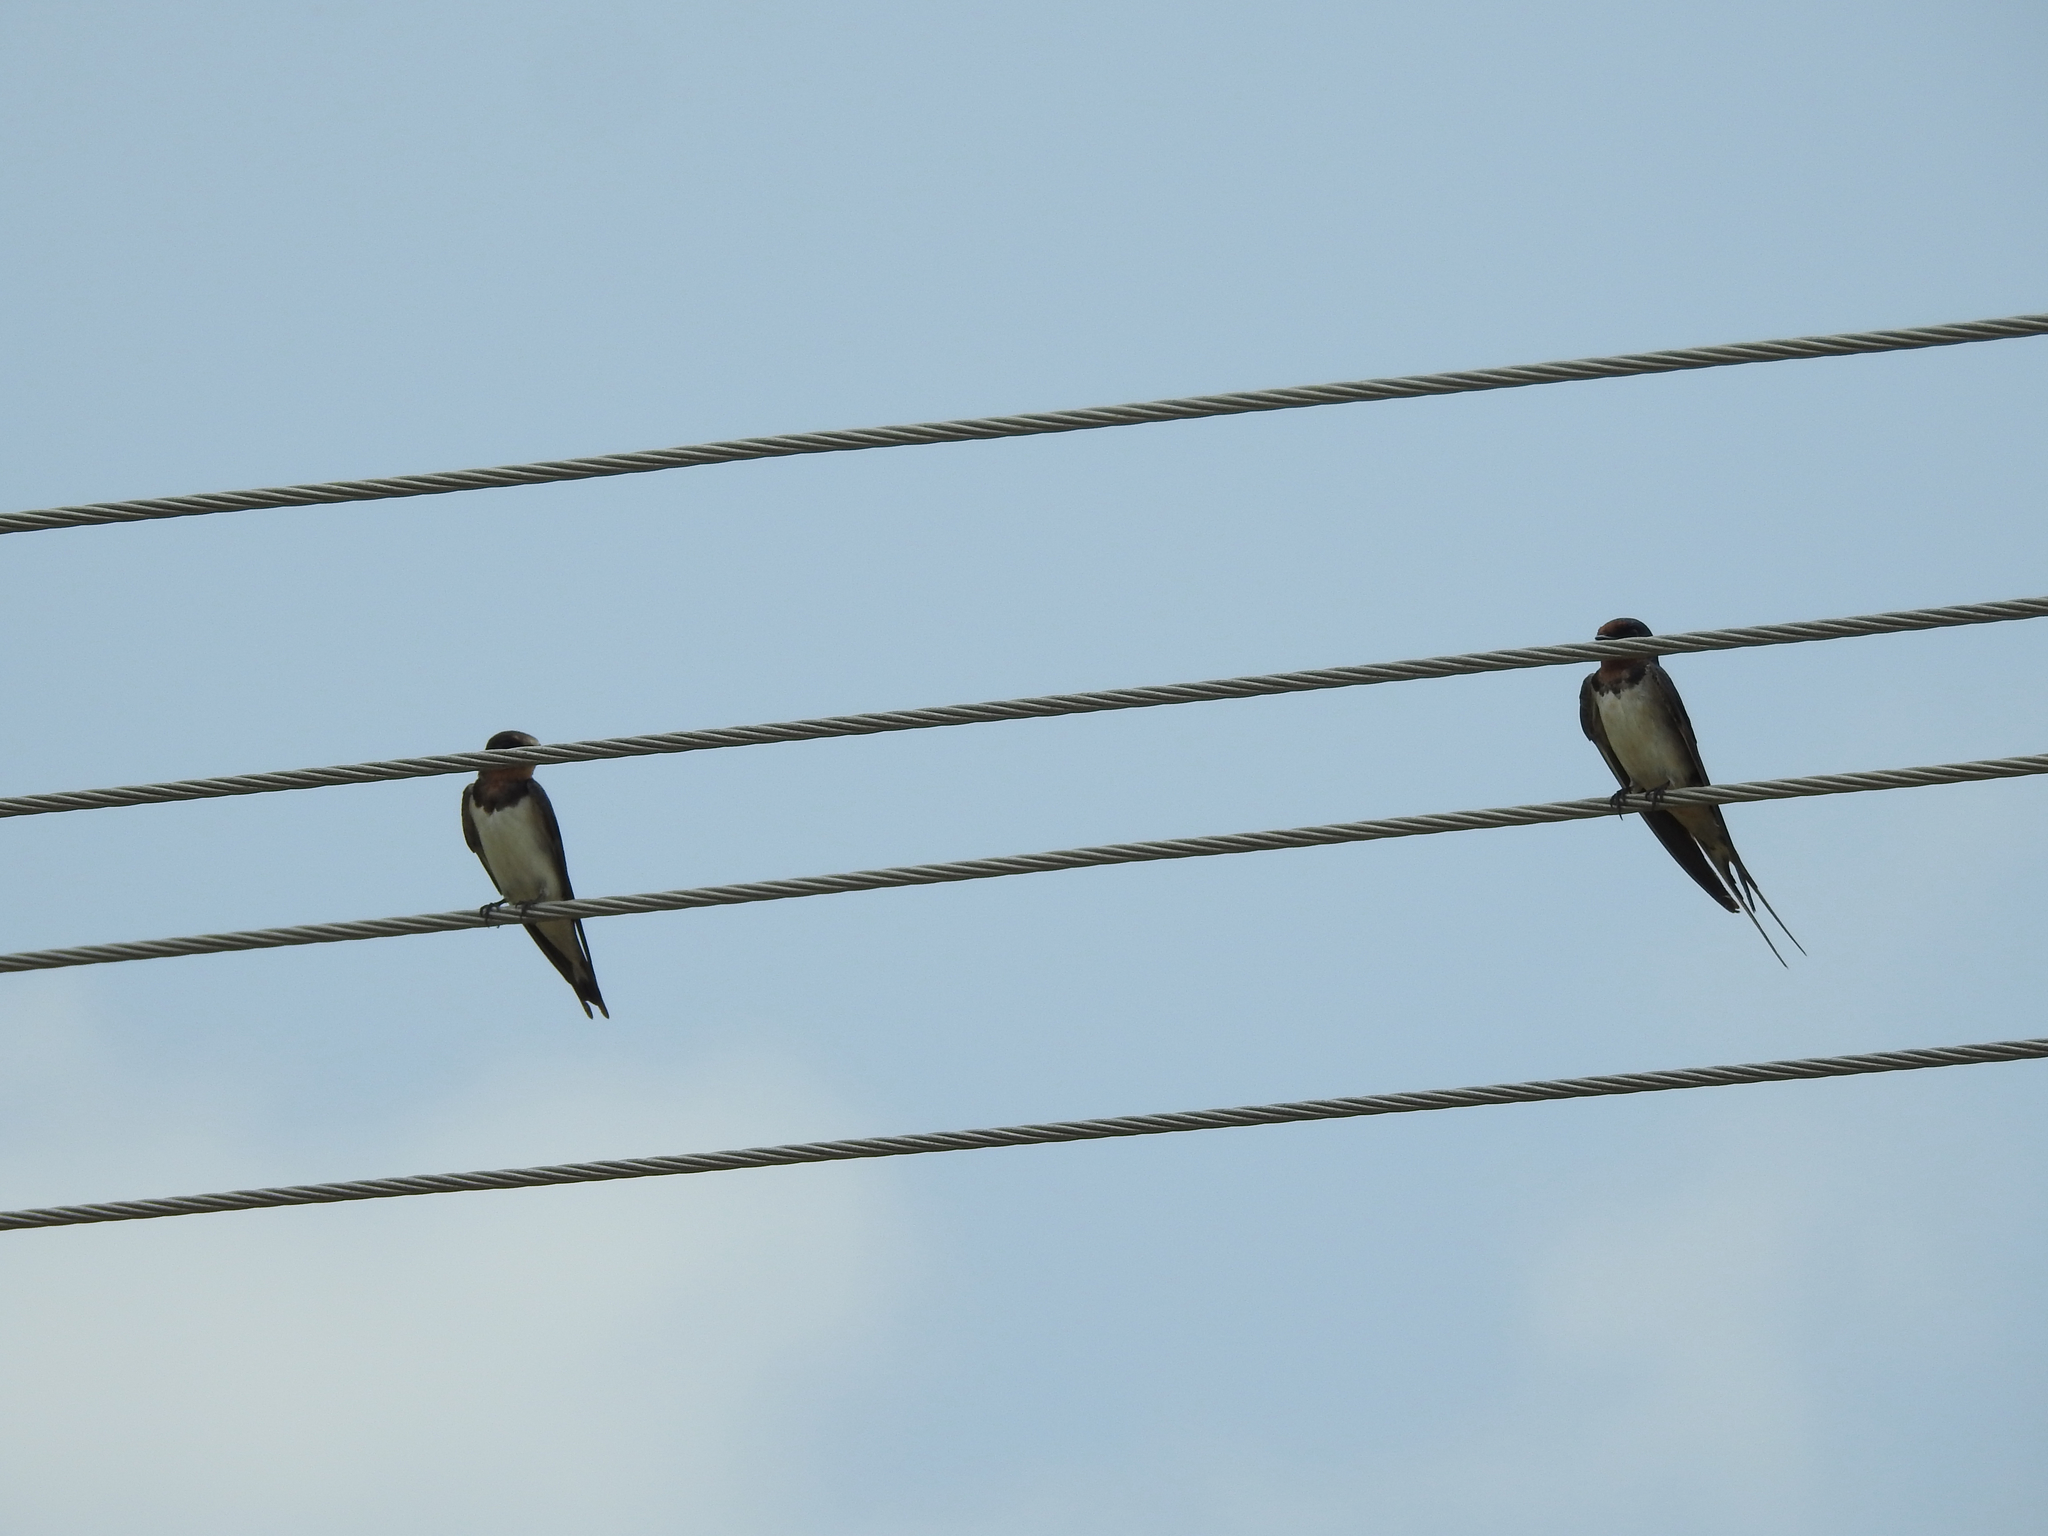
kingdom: Animalia
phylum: Chordata
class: Aves
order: Passeriformes
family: Hirundinidae
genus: Hirundo
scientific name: Hirundo rustica
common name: Barn swallow
